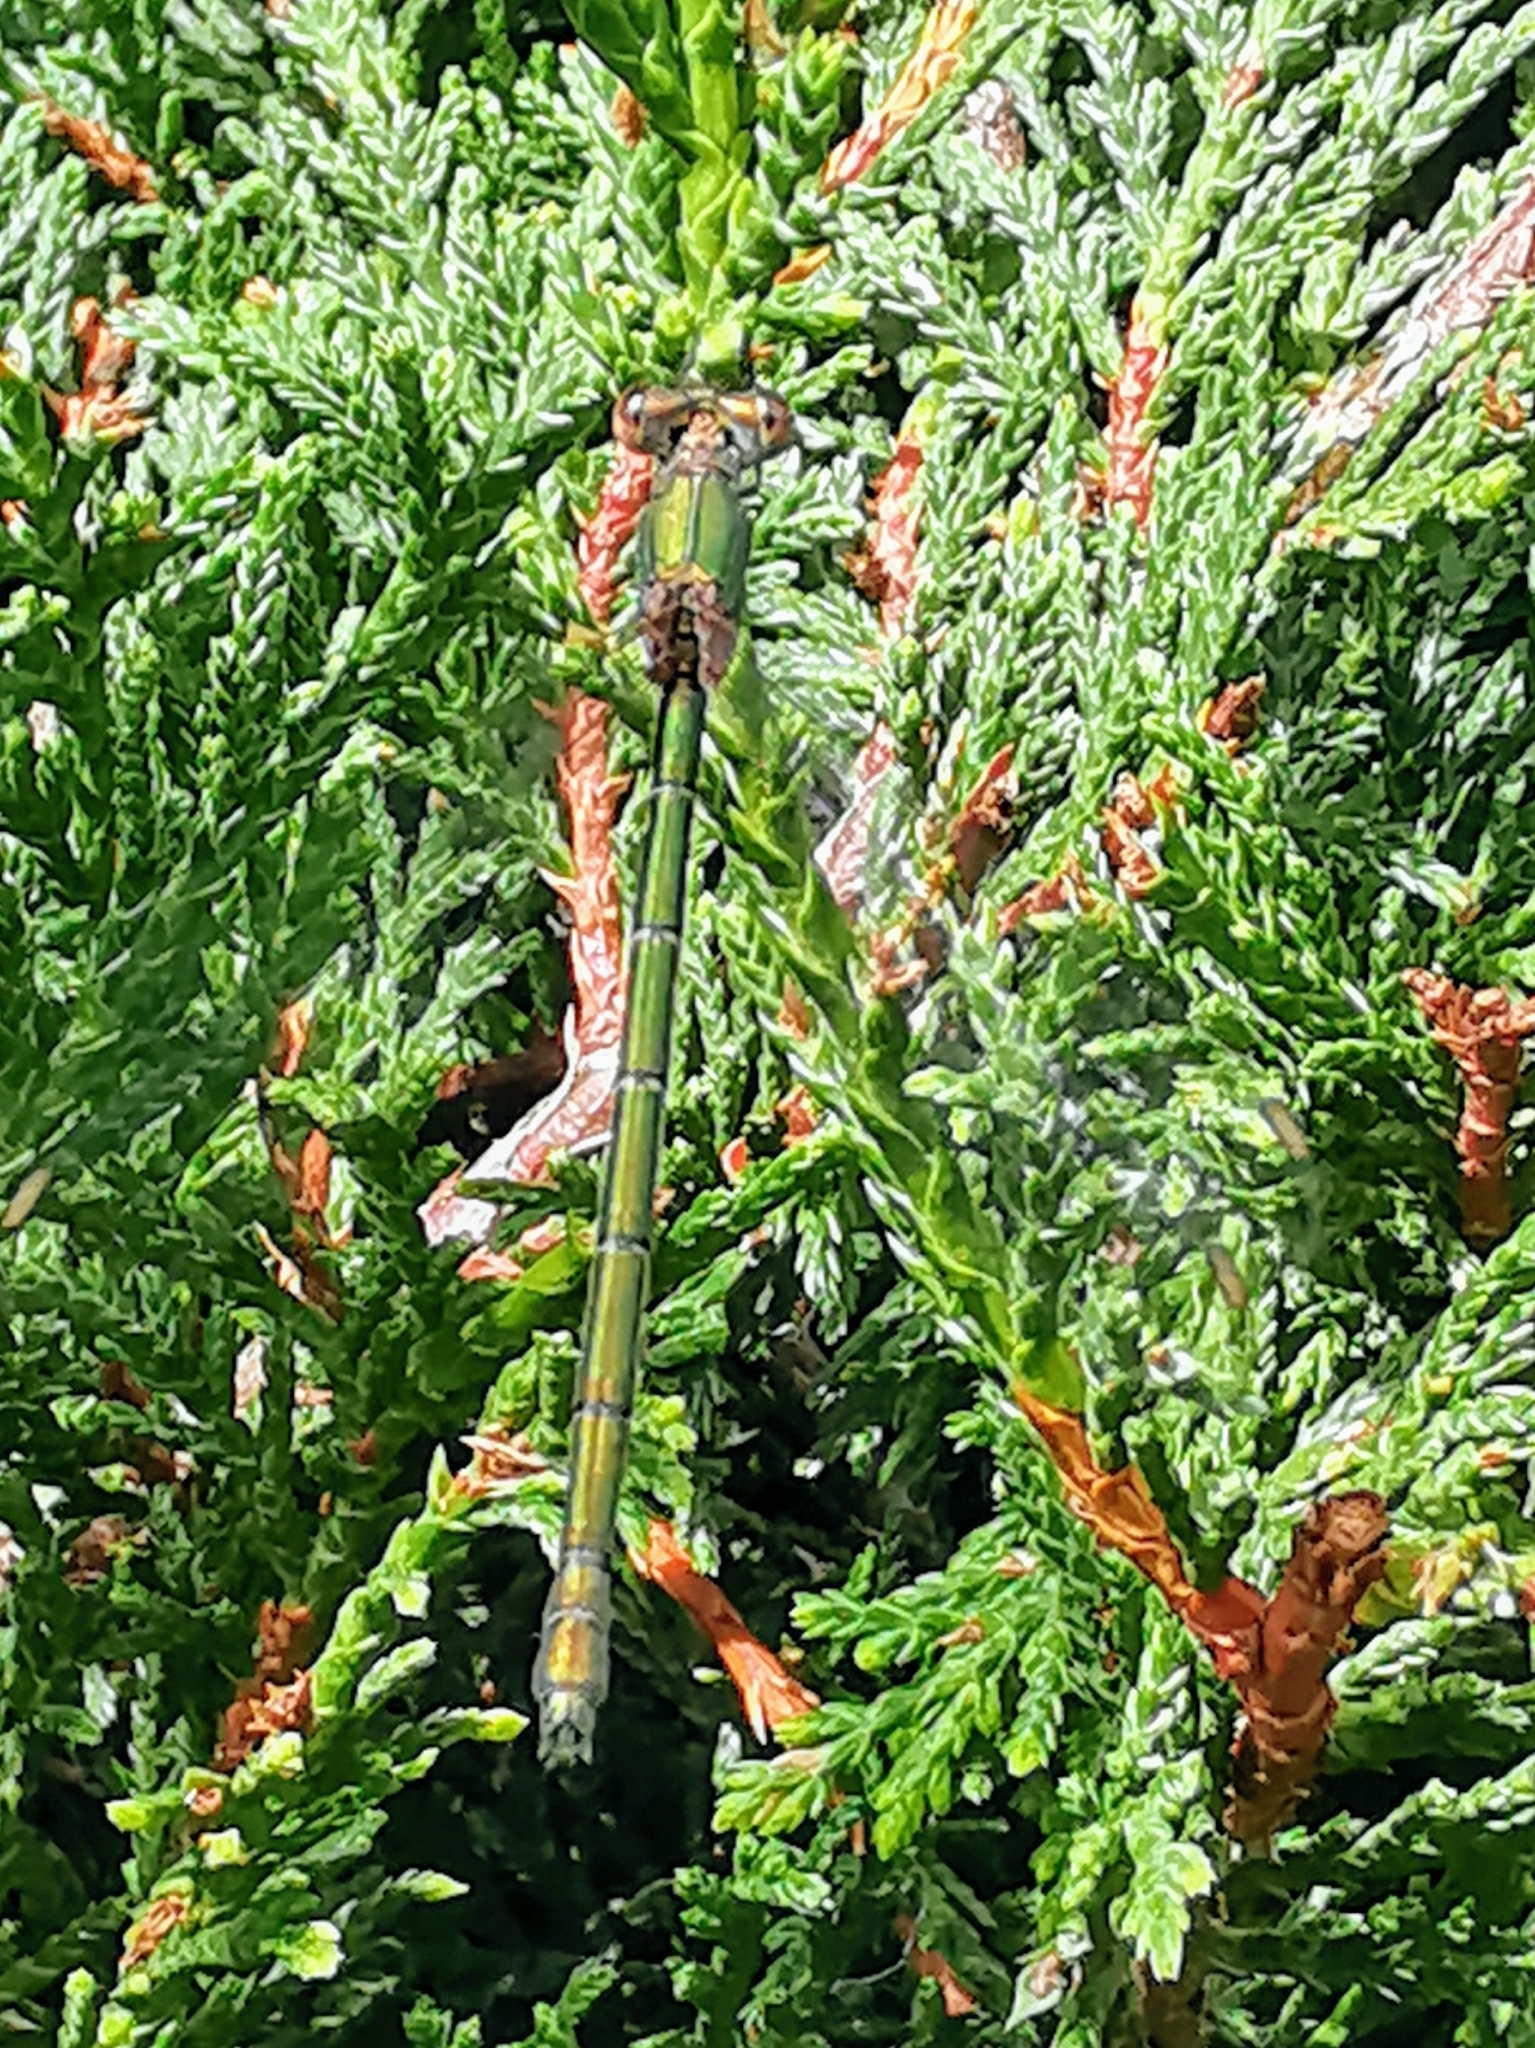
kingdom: Animalia
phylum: Arthropoda
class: Insecta
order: Odonata
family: Lestidae
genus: Chalcolestes
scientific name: Chalcolestes viridis
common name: Green emerald damselfly
